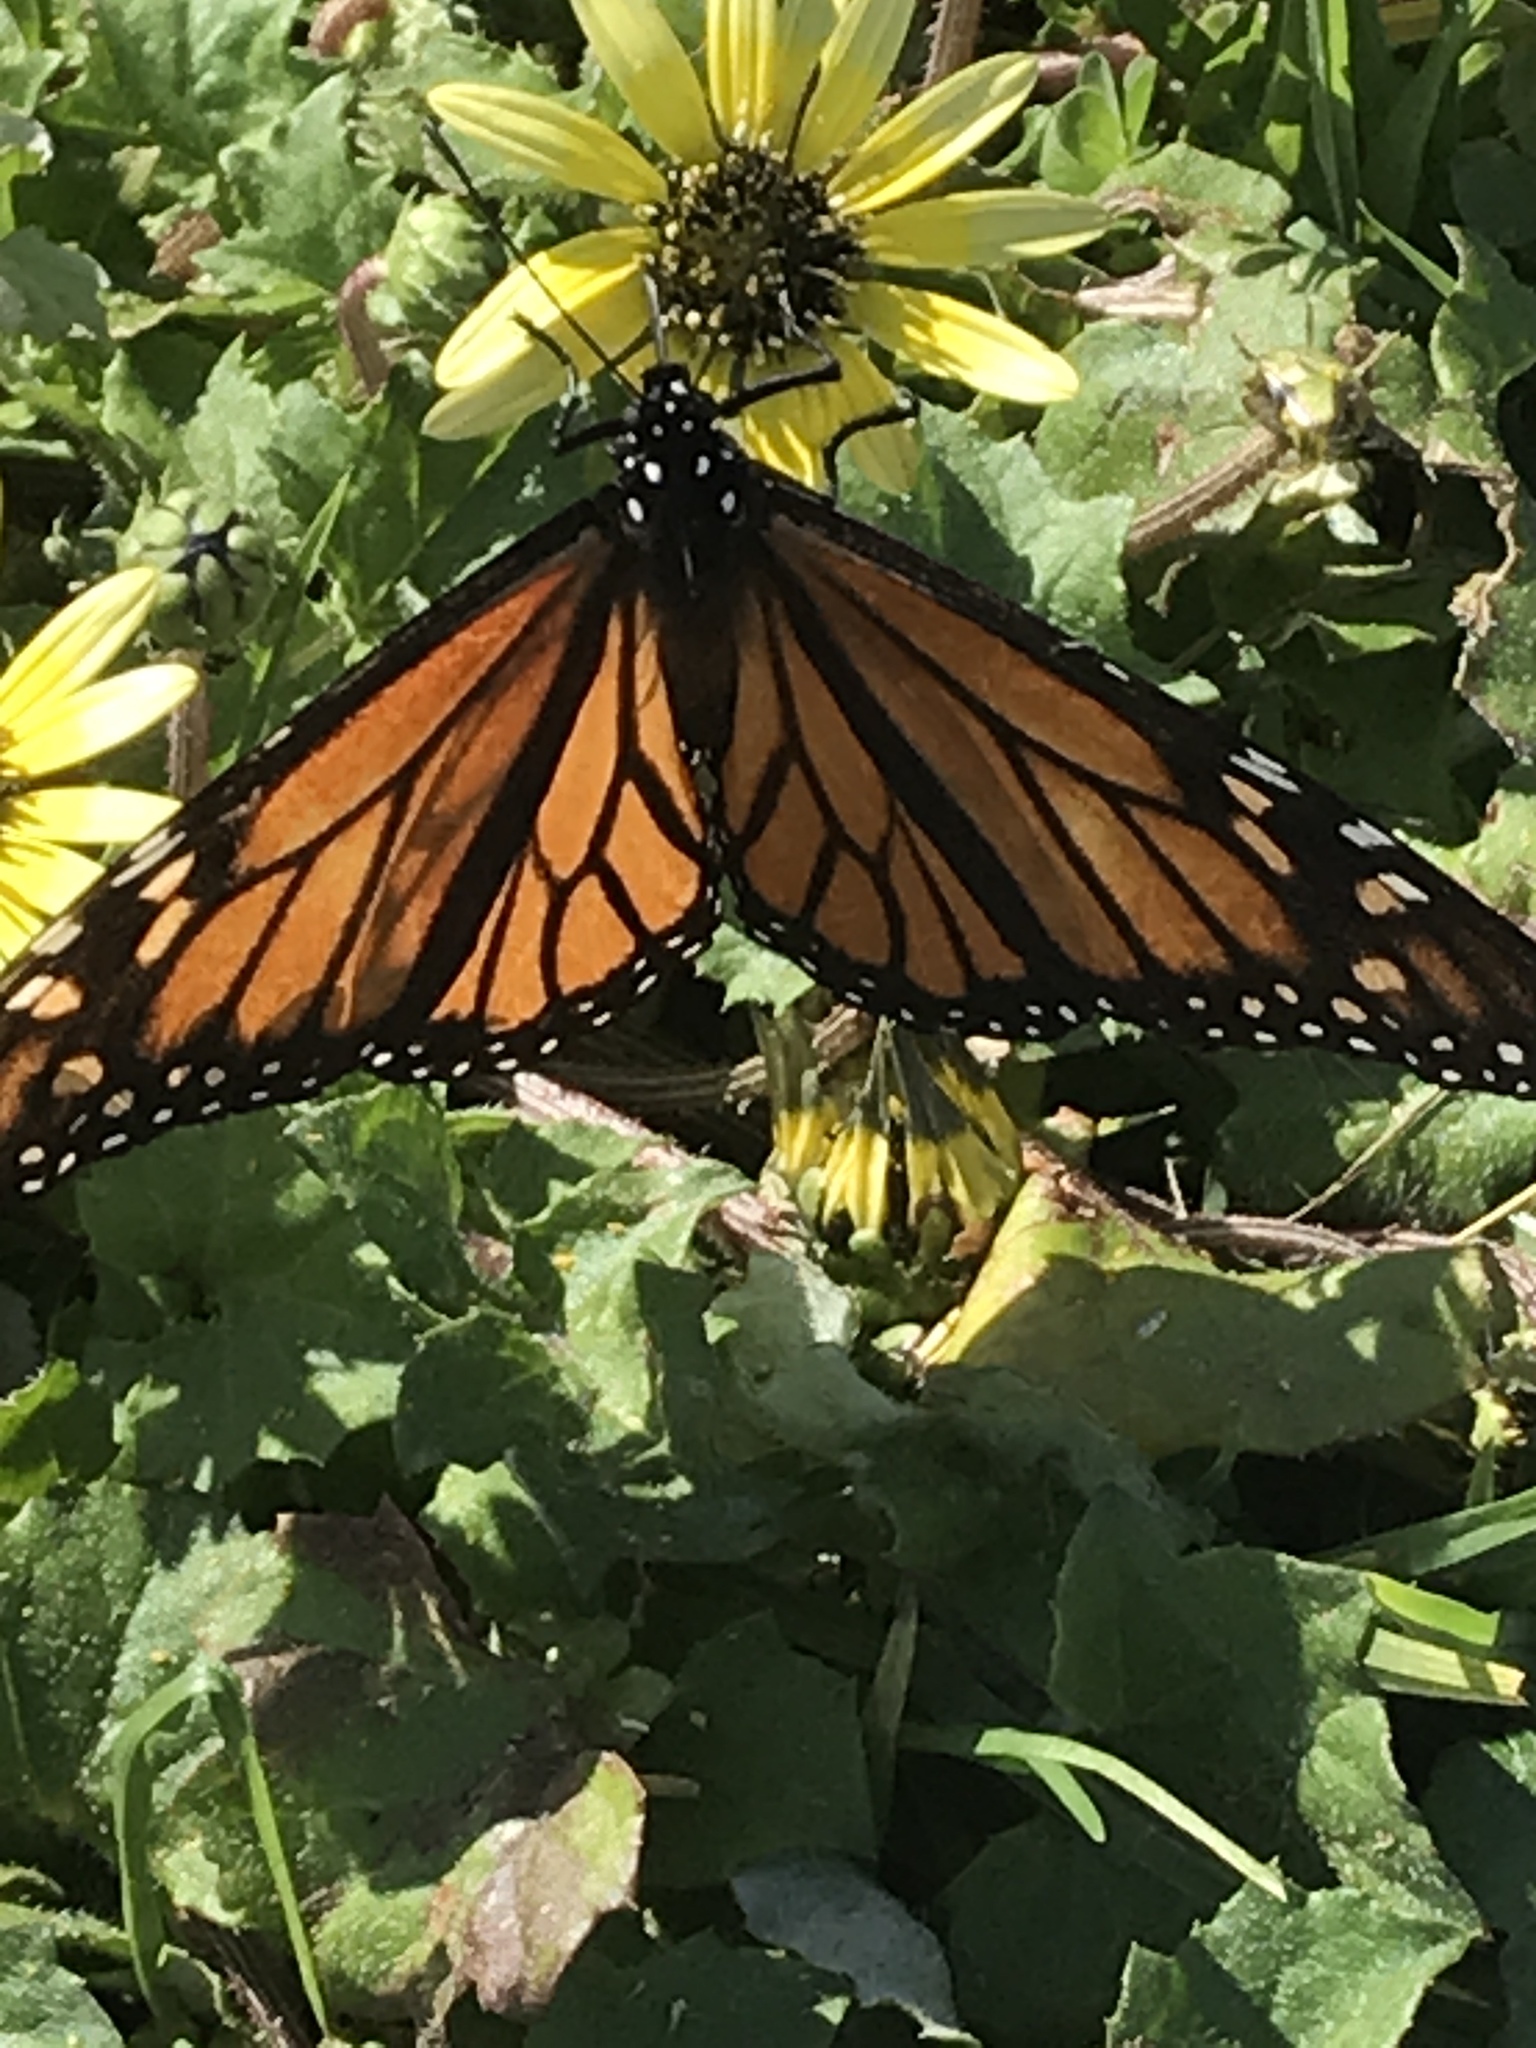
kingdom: Animalia
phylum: Arthropoda
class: Insecta
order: Lepidoptera
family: Nymphalidae
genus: Danaus
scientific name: Danaus plexippus
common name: Monarch
